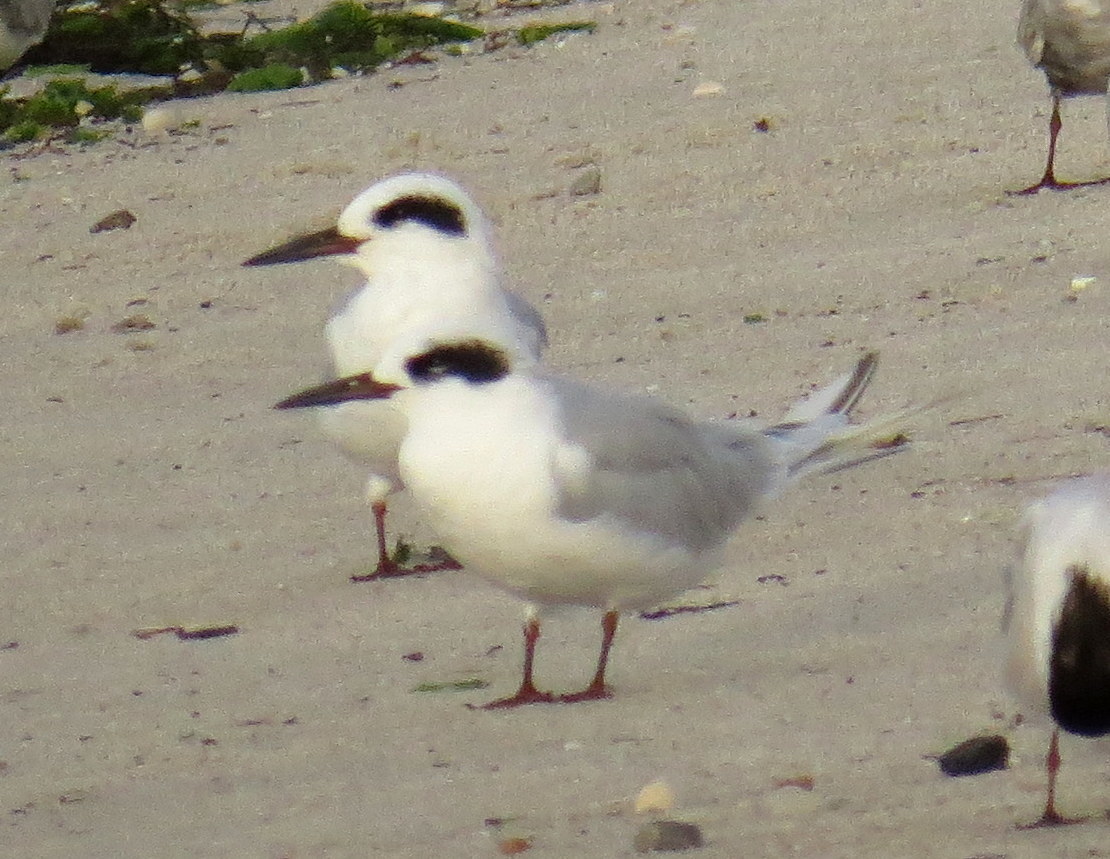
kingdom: Animalia
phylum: Chordata
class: Aves
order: Charadriiformes
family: Laridae
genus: Sterna
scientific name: Sterna forsteri
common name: Forster's tern
